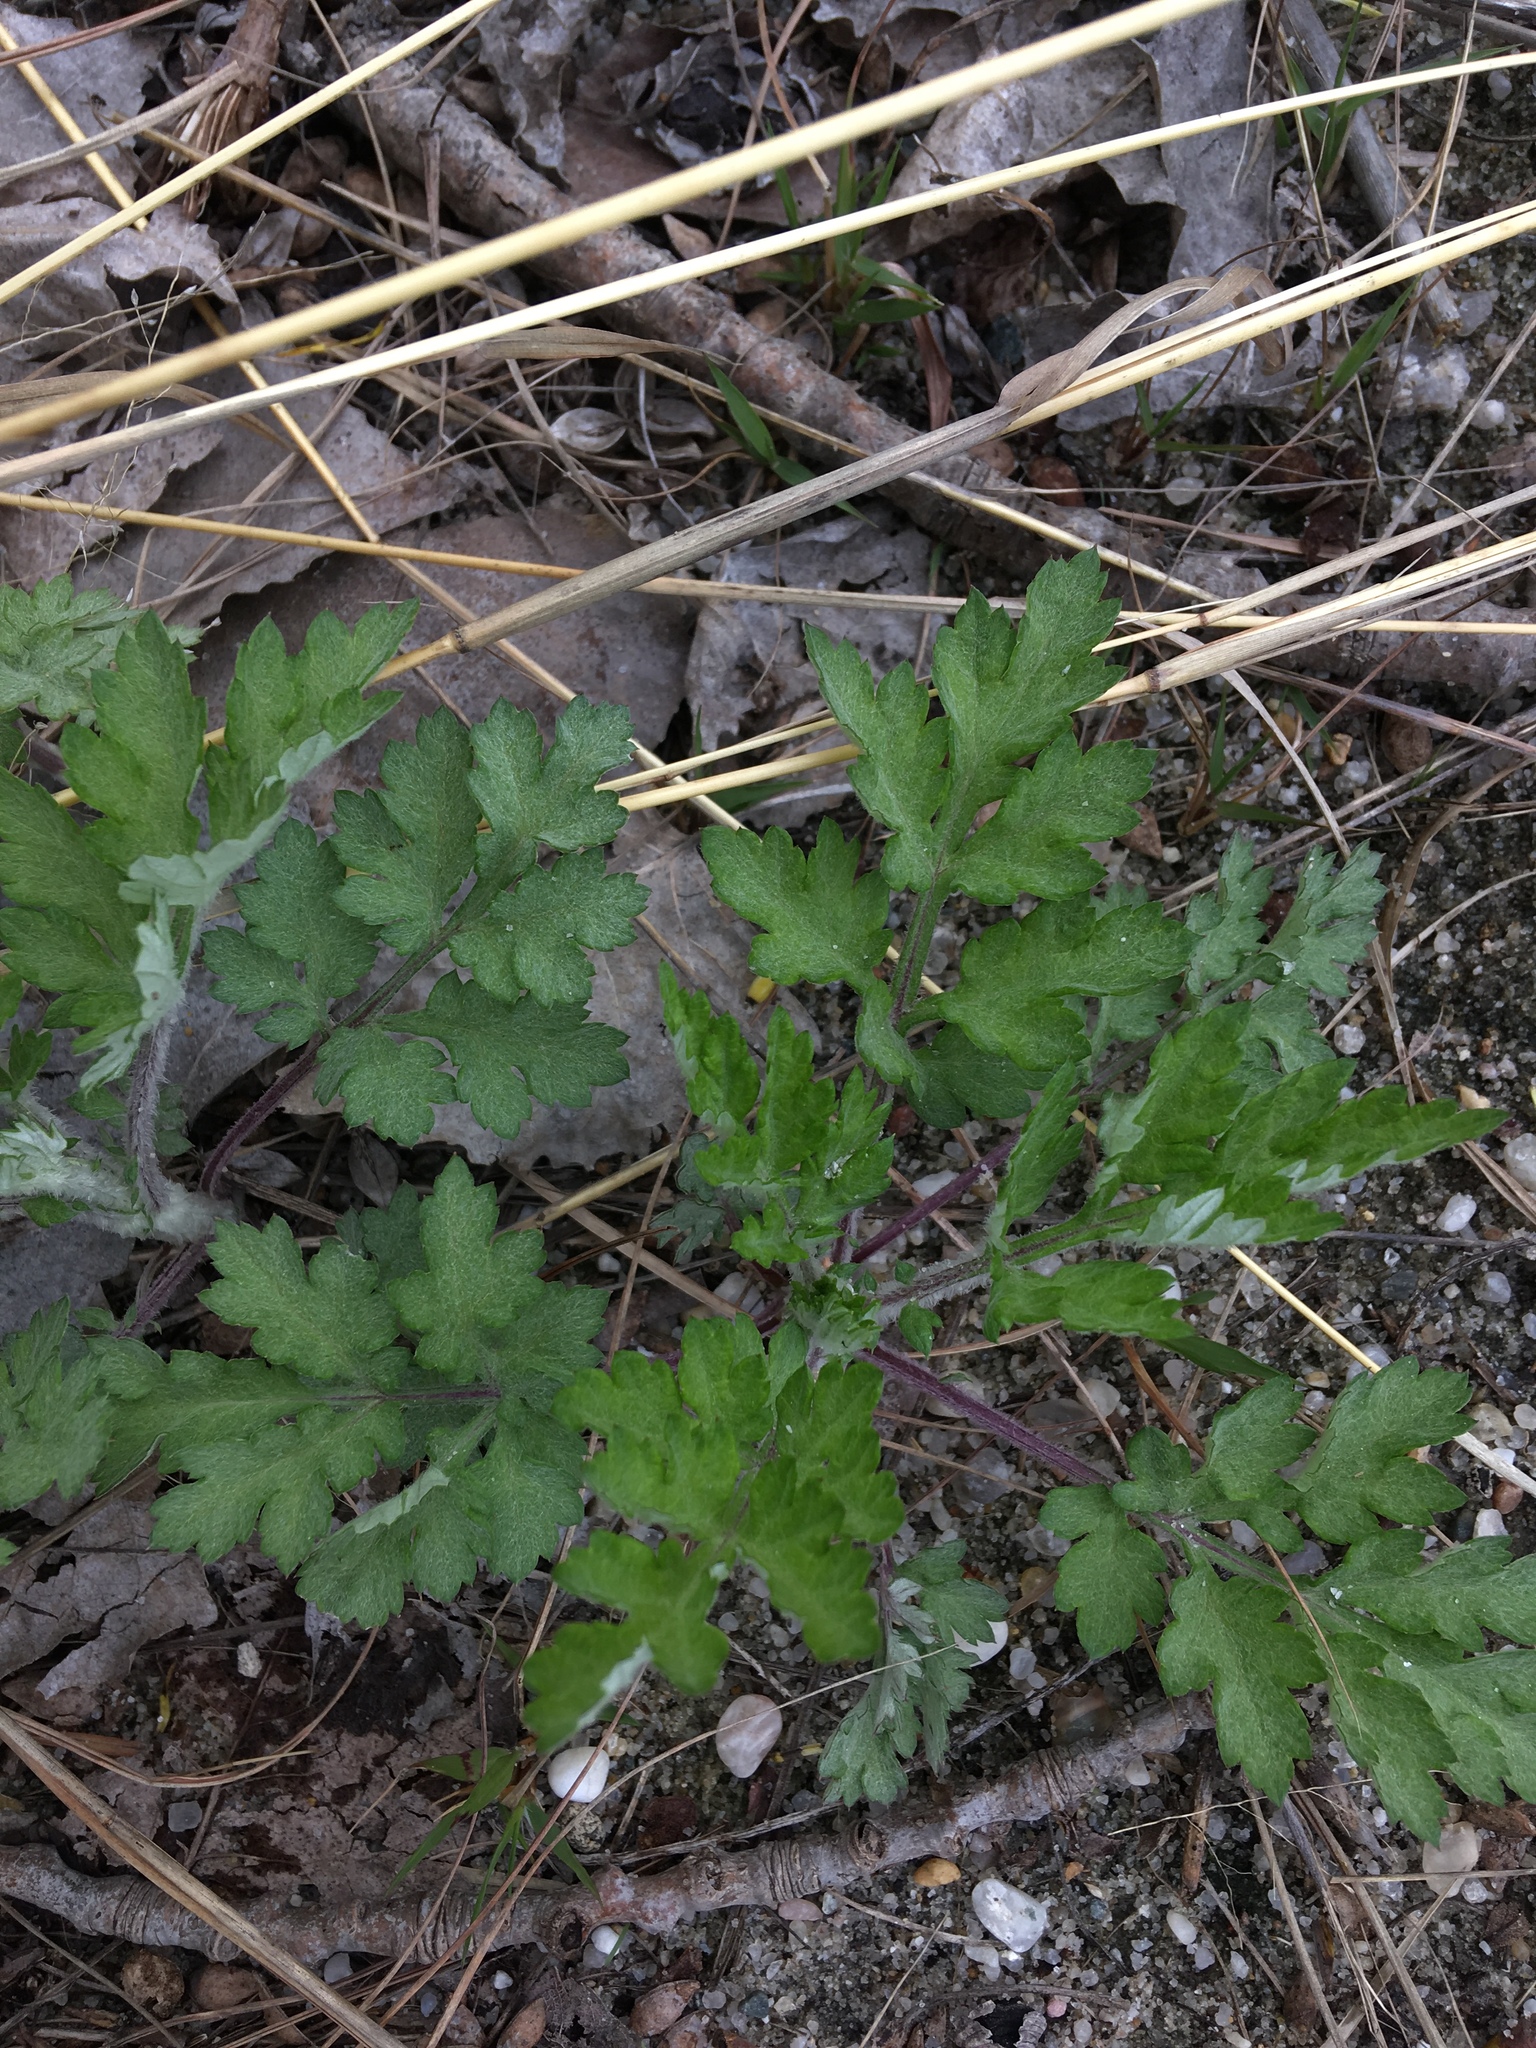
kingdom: Plantae
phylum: Tracheophyta
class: Magnoliopsida
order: Asterales
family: Asteraceae
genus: Artemisia
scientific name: Artemisia vulgaris
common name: Mugwort
